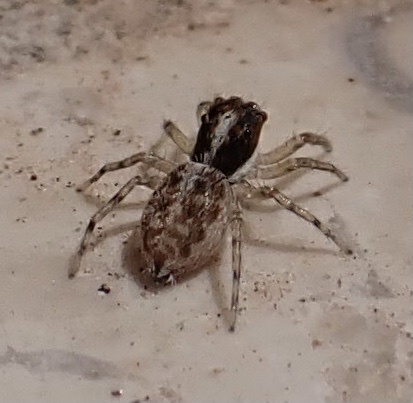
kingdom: Animalia
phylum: Arthropoda
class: Arachnida
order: Araneae
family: Salticidae
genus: Menemerus
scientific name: Menemerus semilimbatus
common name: Jumping spider
